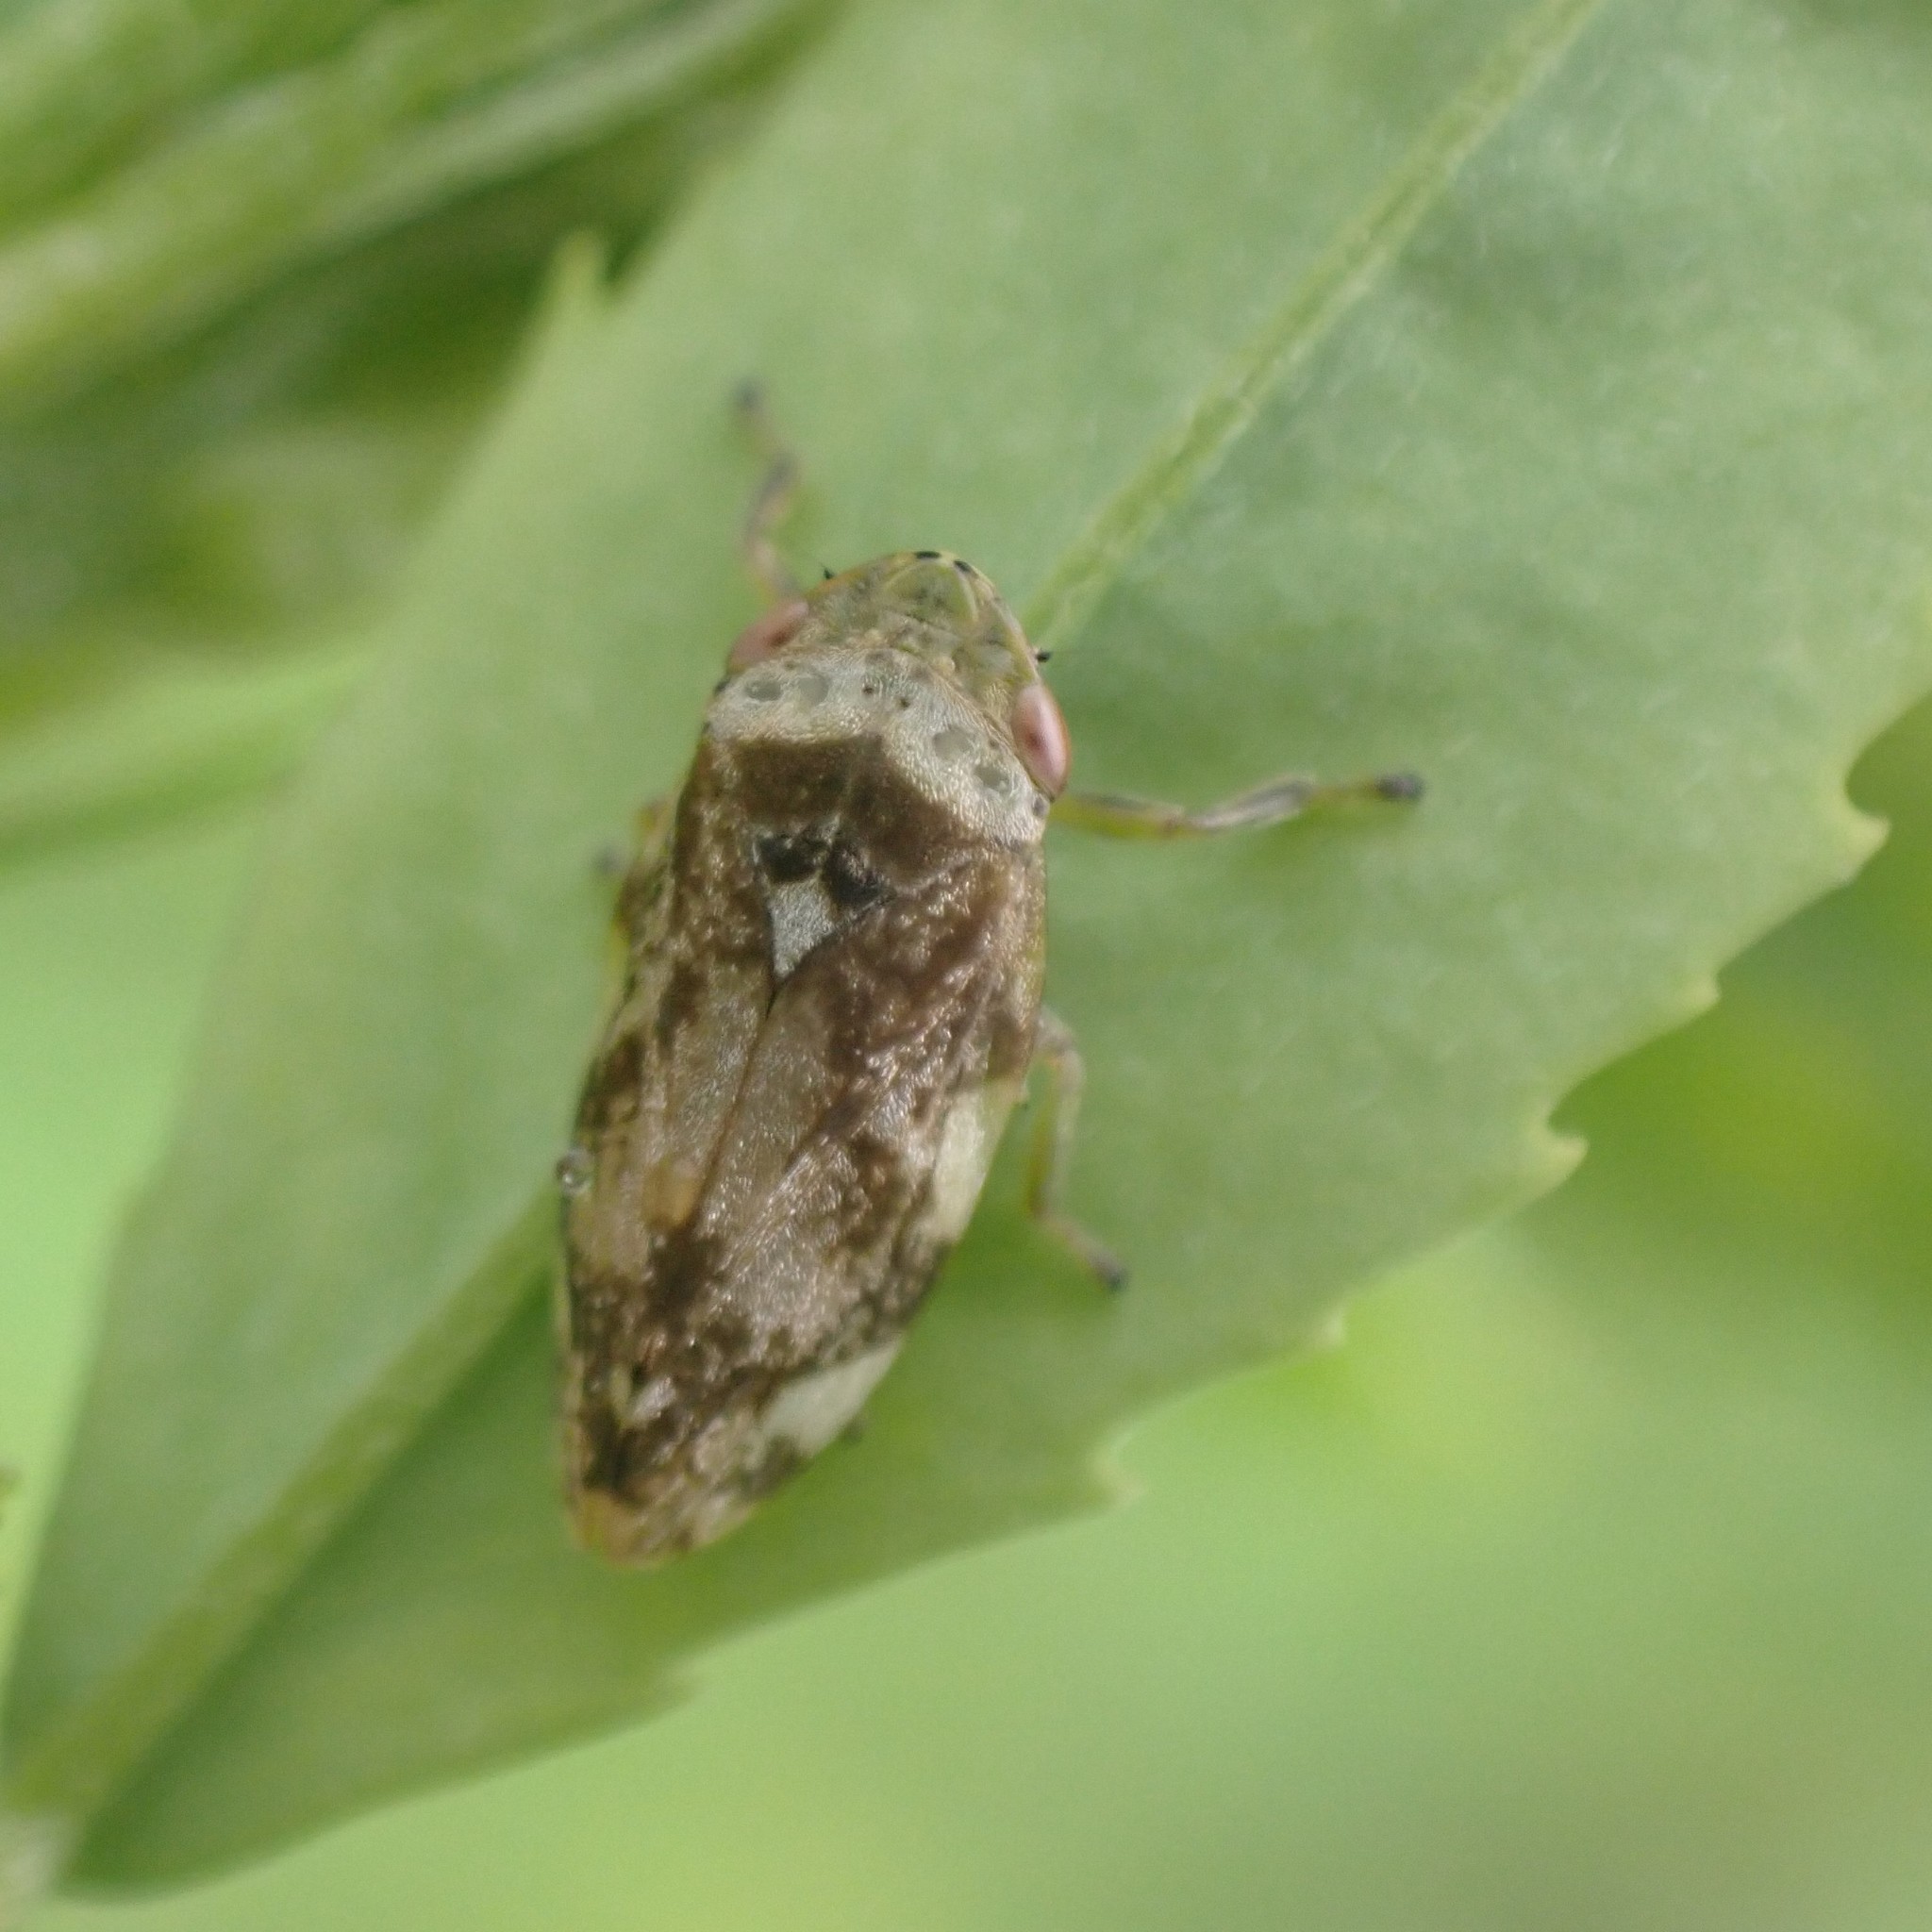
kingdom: Animalia
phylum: Arthropoda
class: Insecta
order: Hemiptera
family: Aphrophoridae
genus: Philaenus
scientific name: Philaenus spumarius
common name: Meadow spittlebug
